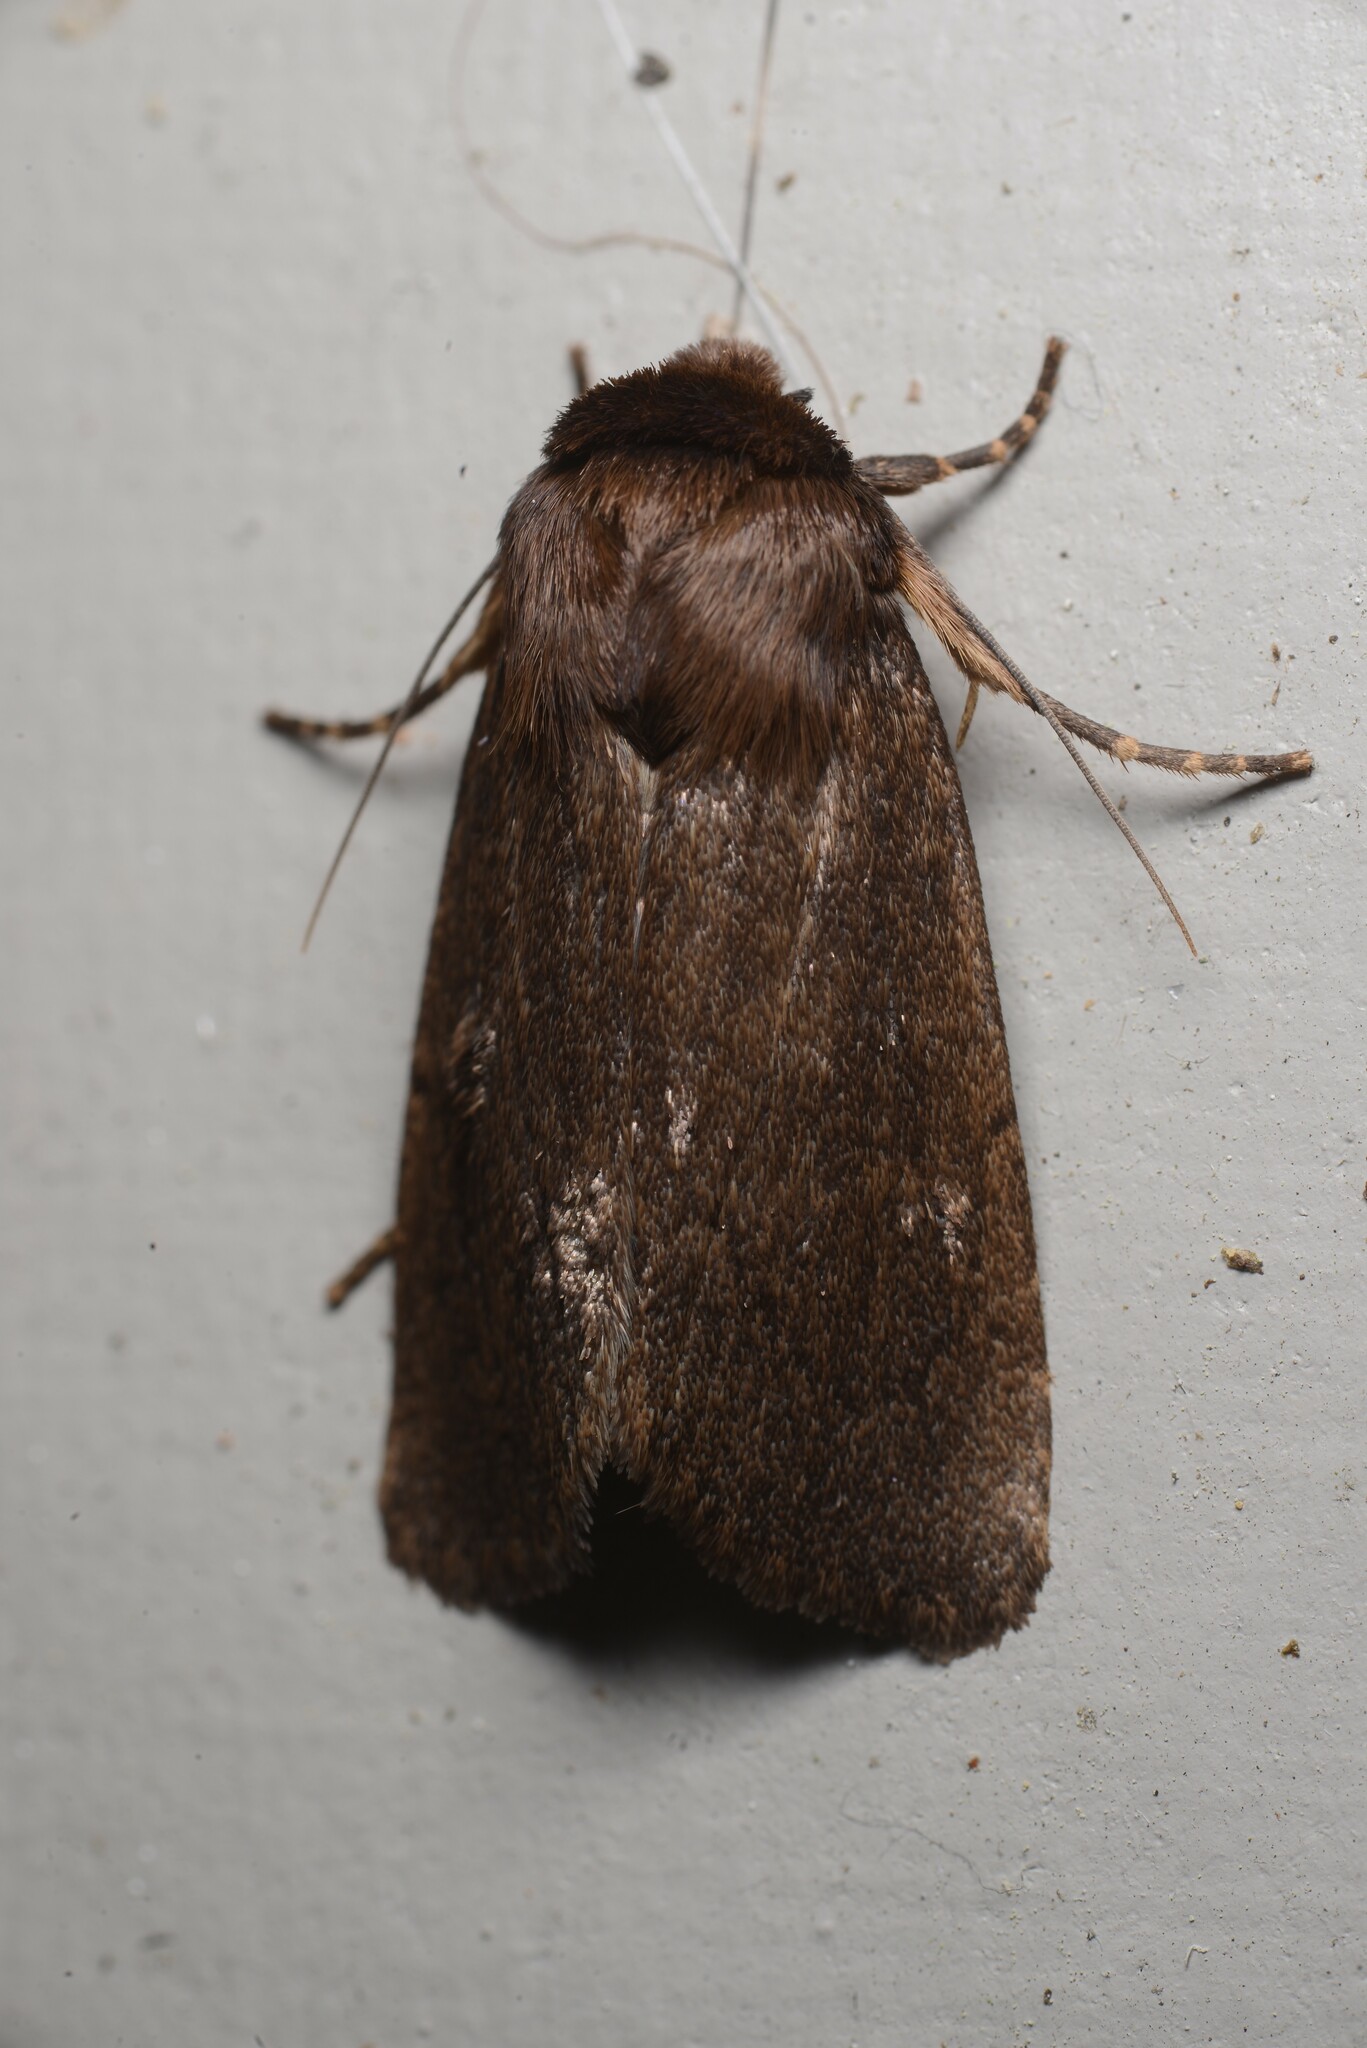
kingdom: Animalia
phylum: Arthropoda
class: Insecta
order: Lepidoptera
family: Noctuidae
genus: Bityla
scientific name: Bityla defigurata
